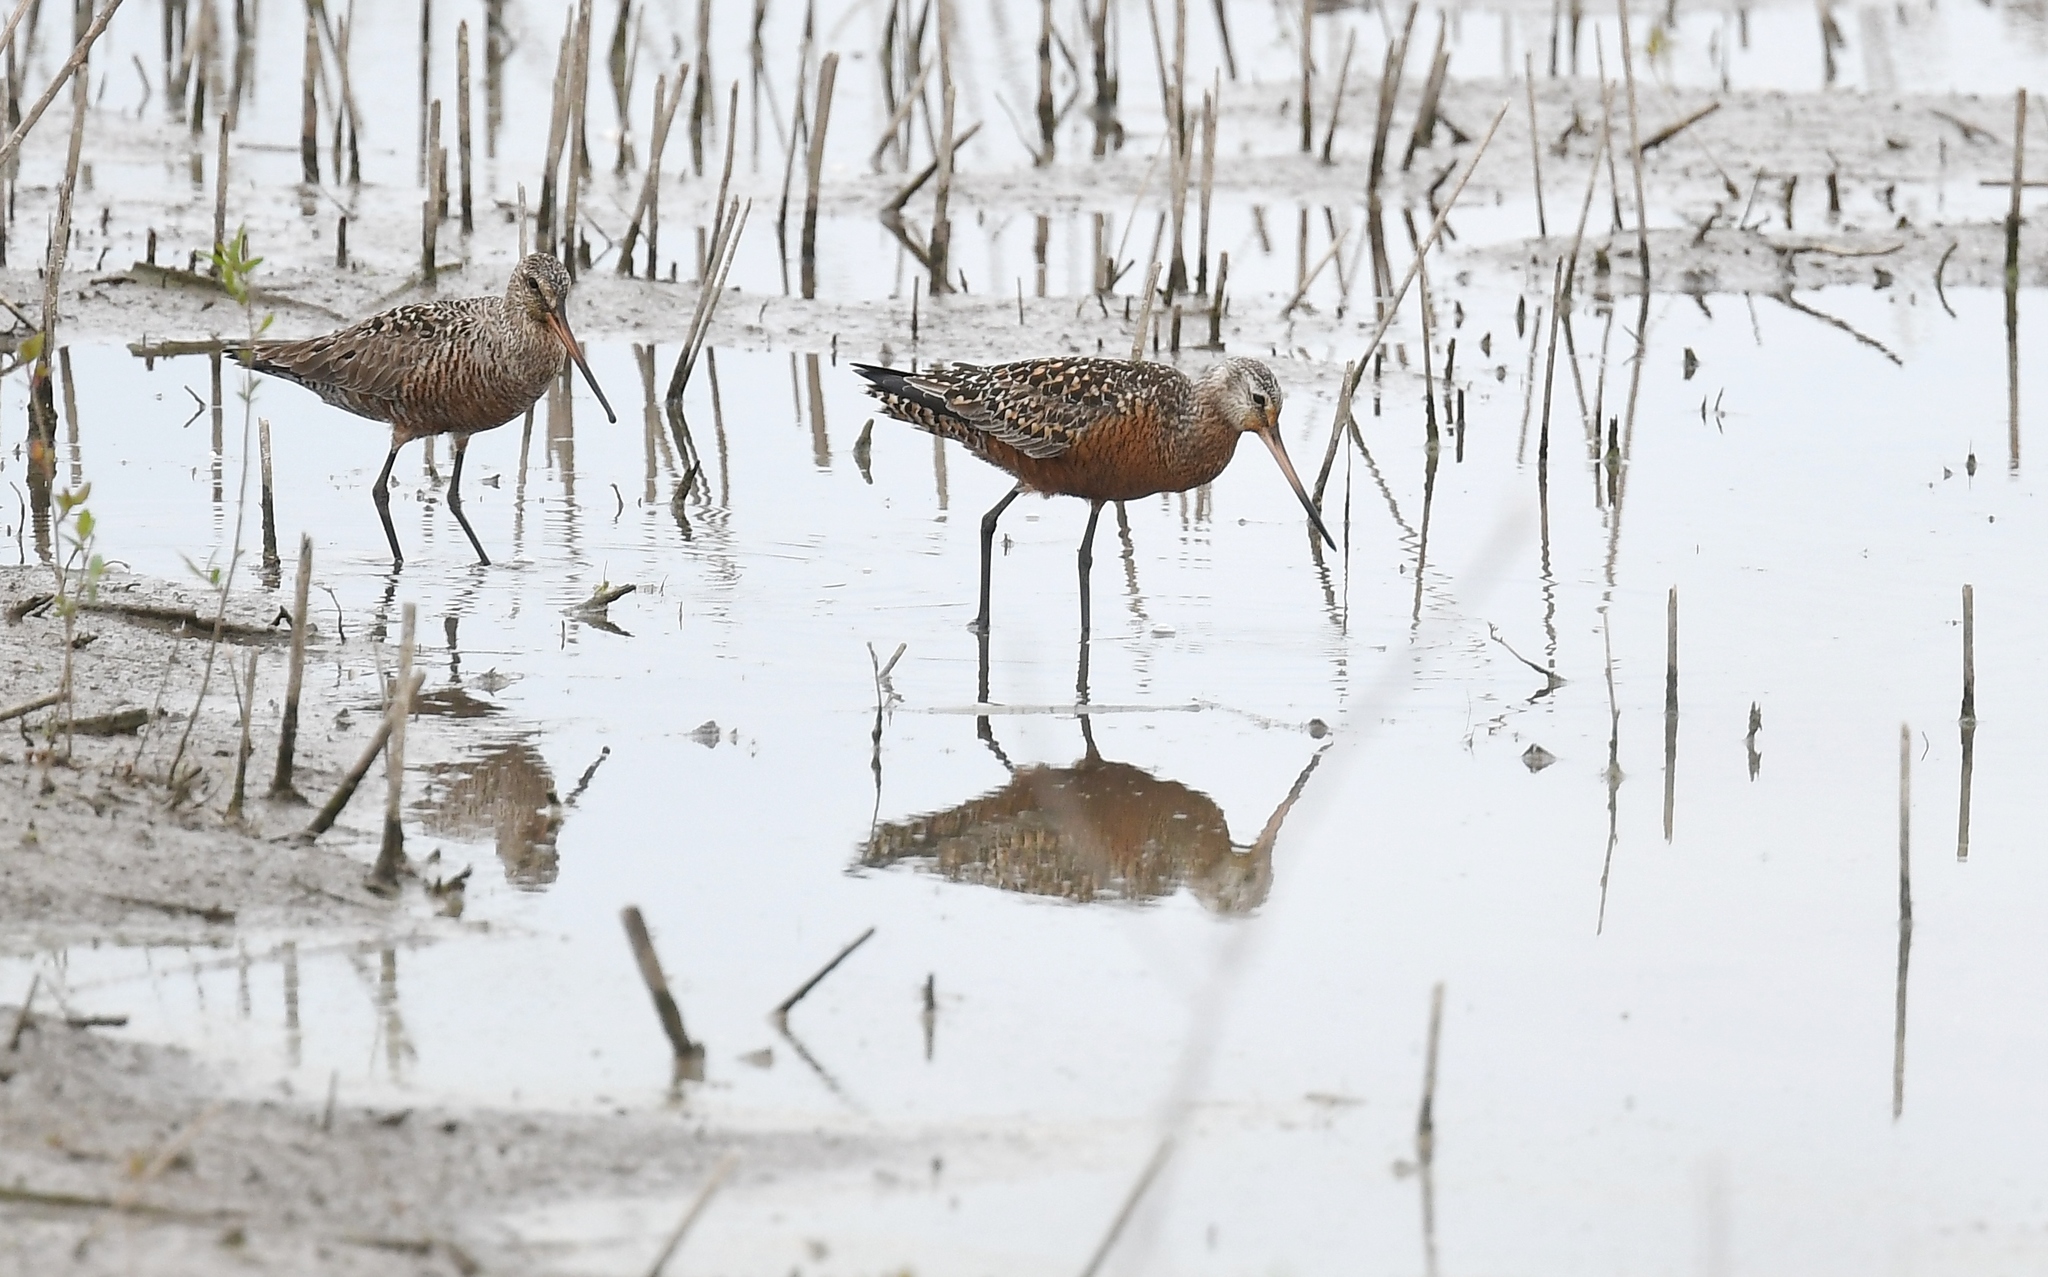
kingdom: Animalia
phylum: Chordata
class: Aves
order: Charadriiformes
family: Scolopacidae
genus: Limosa
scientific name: Limosa haemastica
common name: Hudsonian godwit
